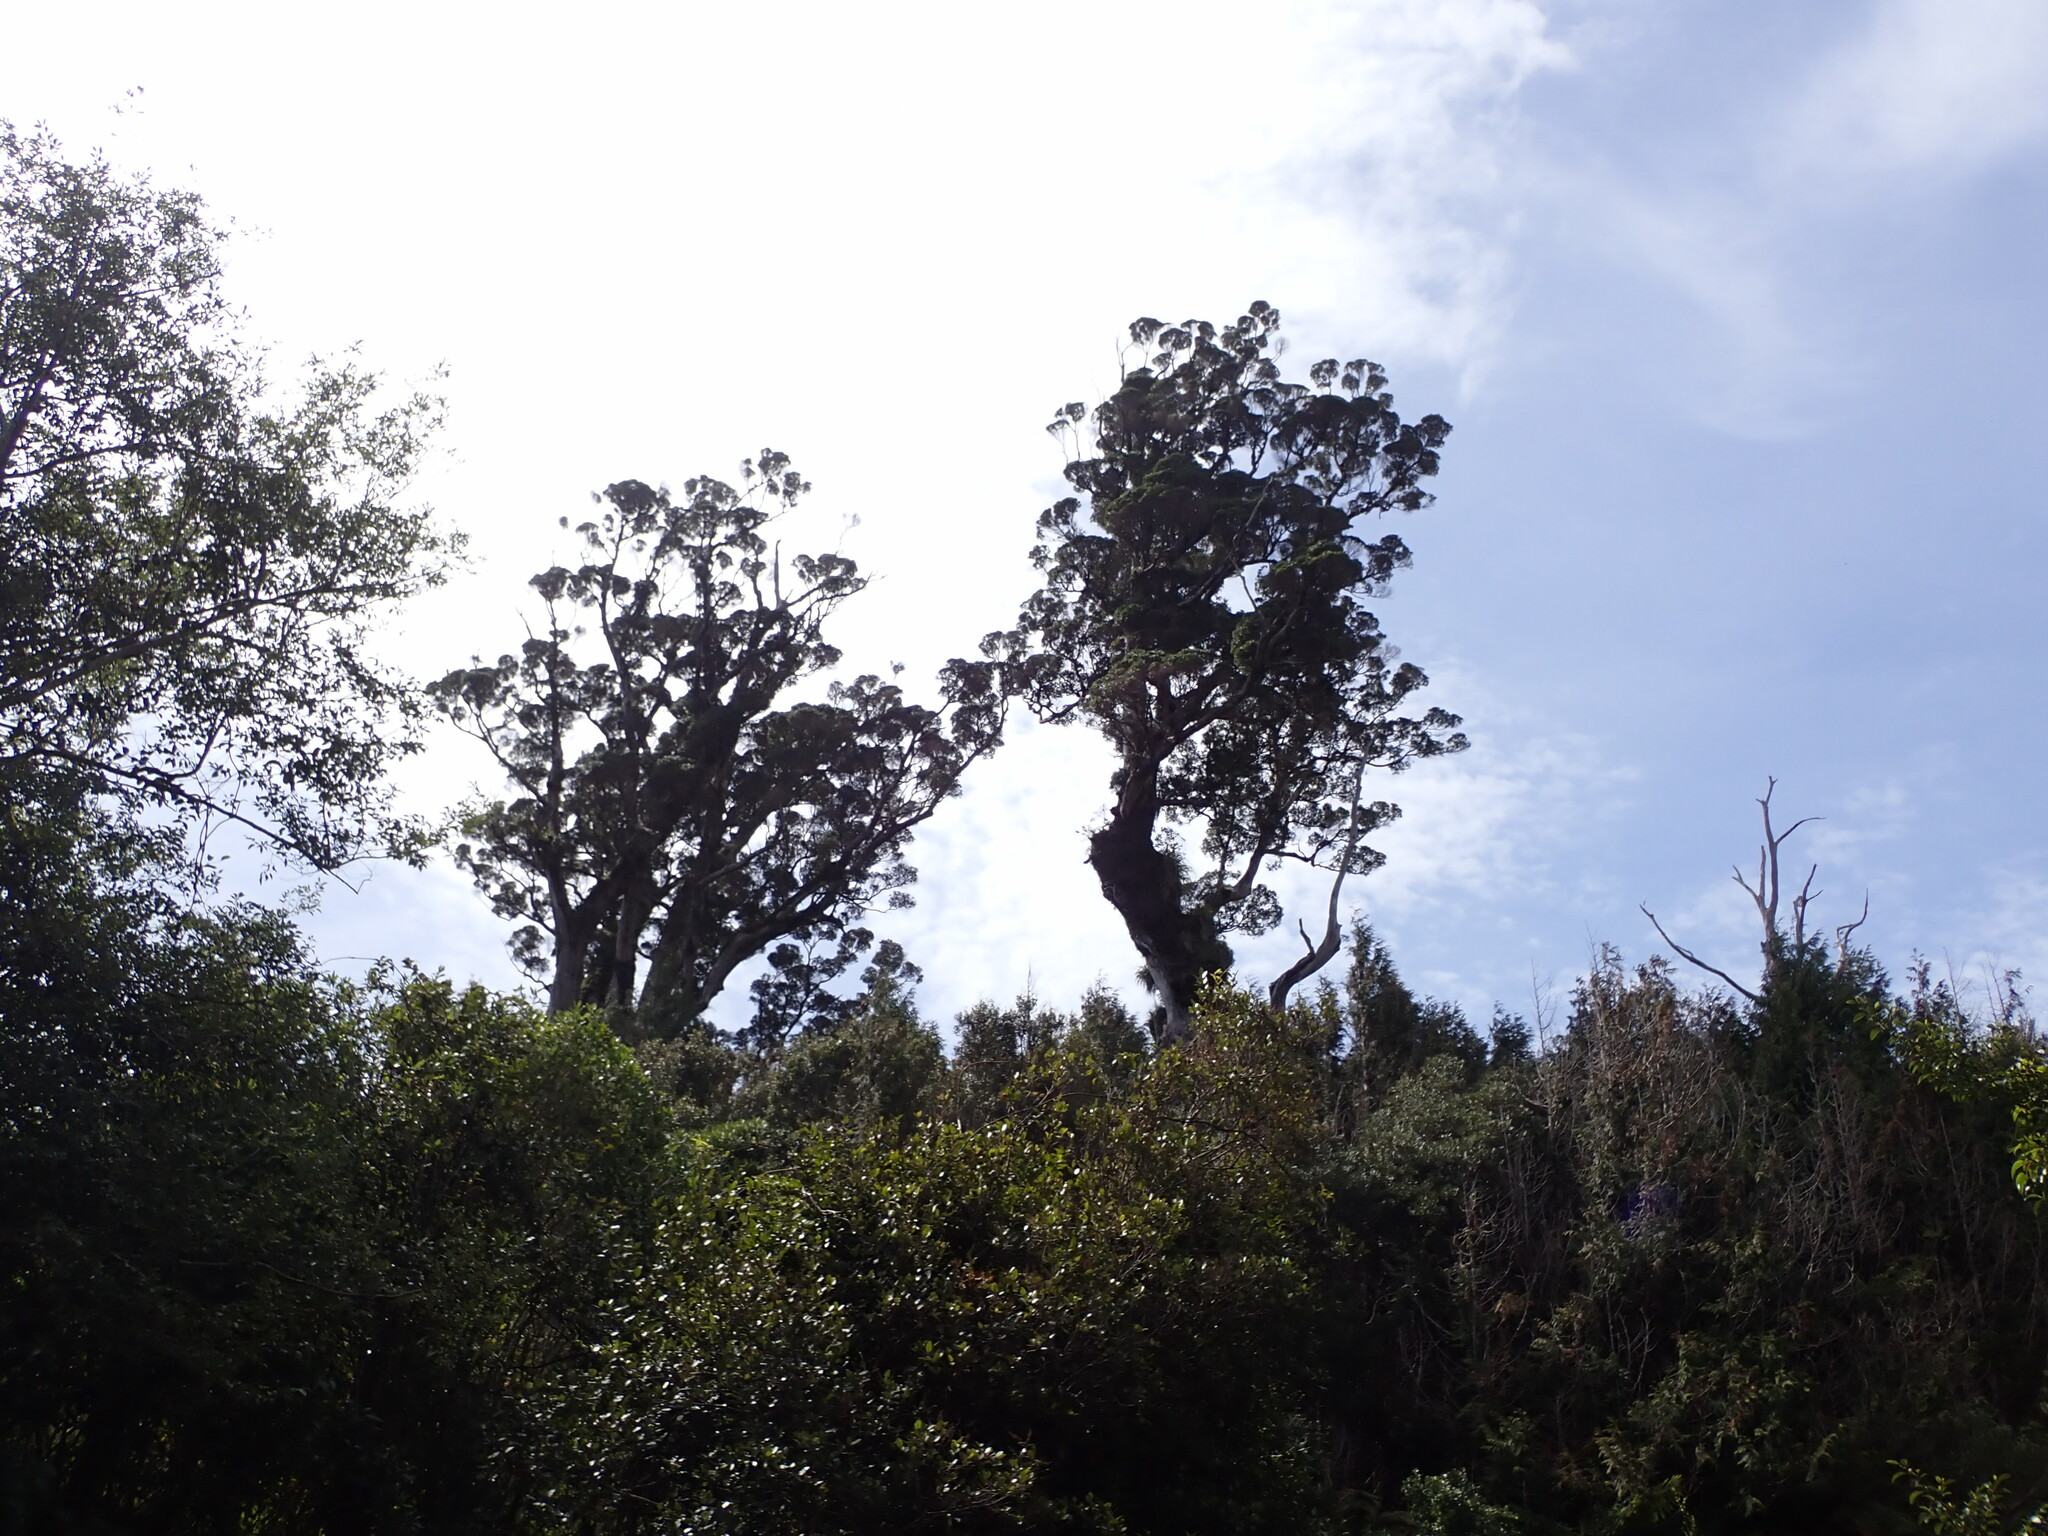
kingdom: Plantae
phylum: Tracheophyta
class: Magnoliopsida
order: Myrtales
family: Myrtaceae
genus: Metrosideros
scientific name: Metrosideros robusta
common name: Northern rata
